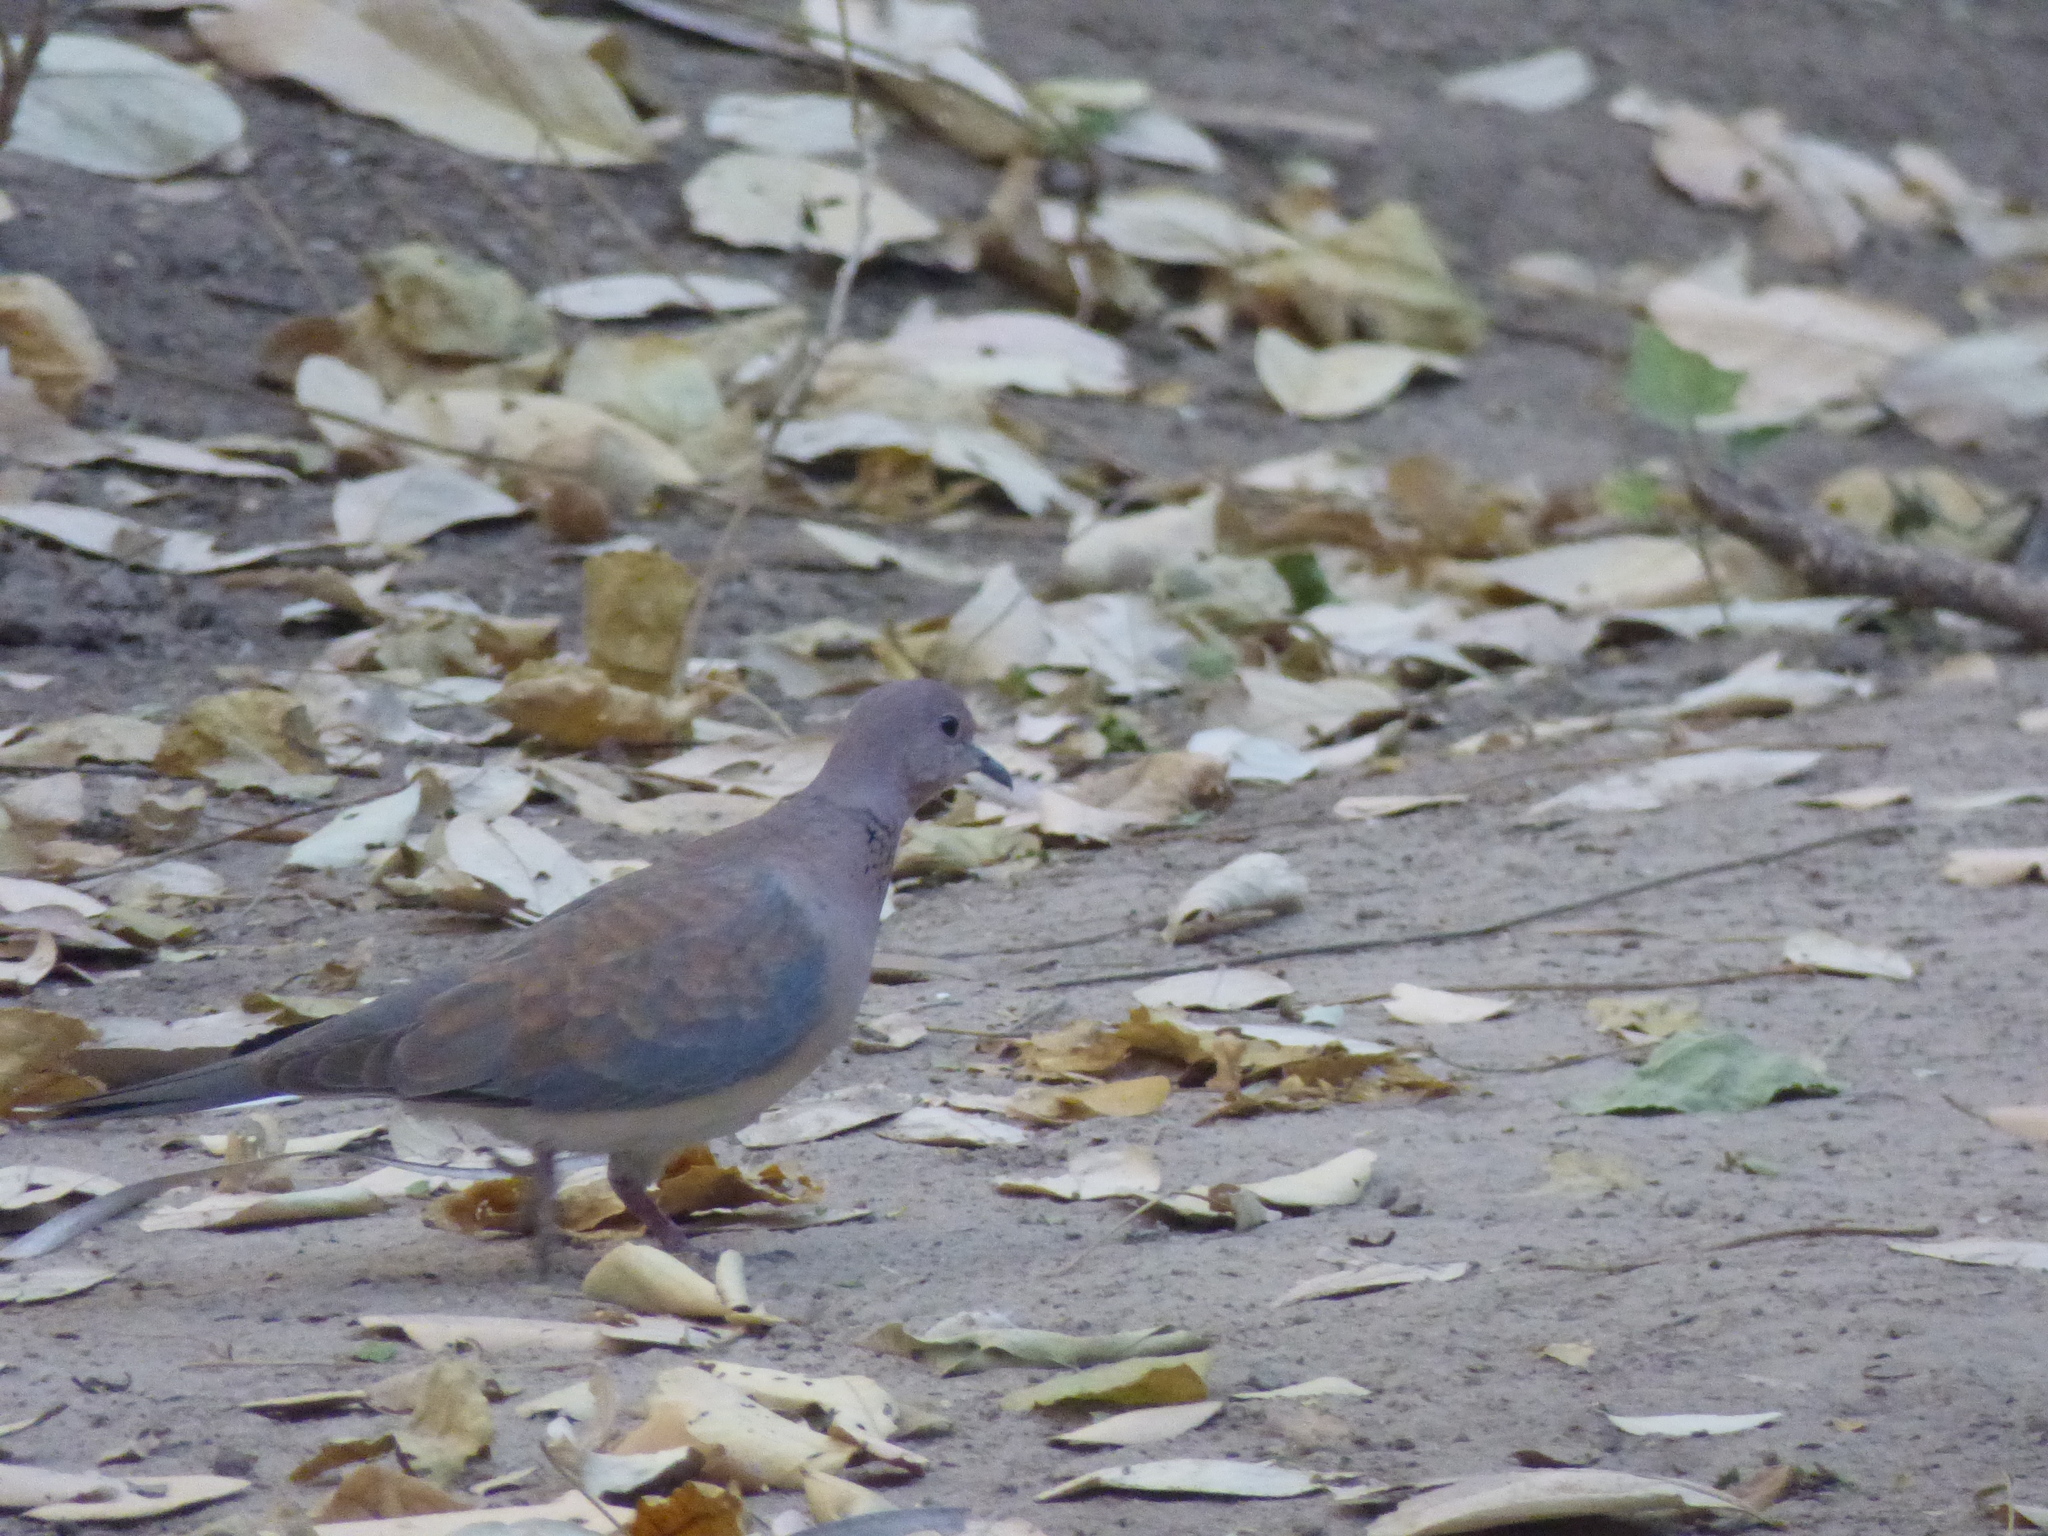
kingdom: Animalia
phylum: Chordata
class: Aves
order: Columbiformes
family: Columbidae
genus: Spilopelia
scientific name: Spilopelia senegalensis
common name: Laughing dove
